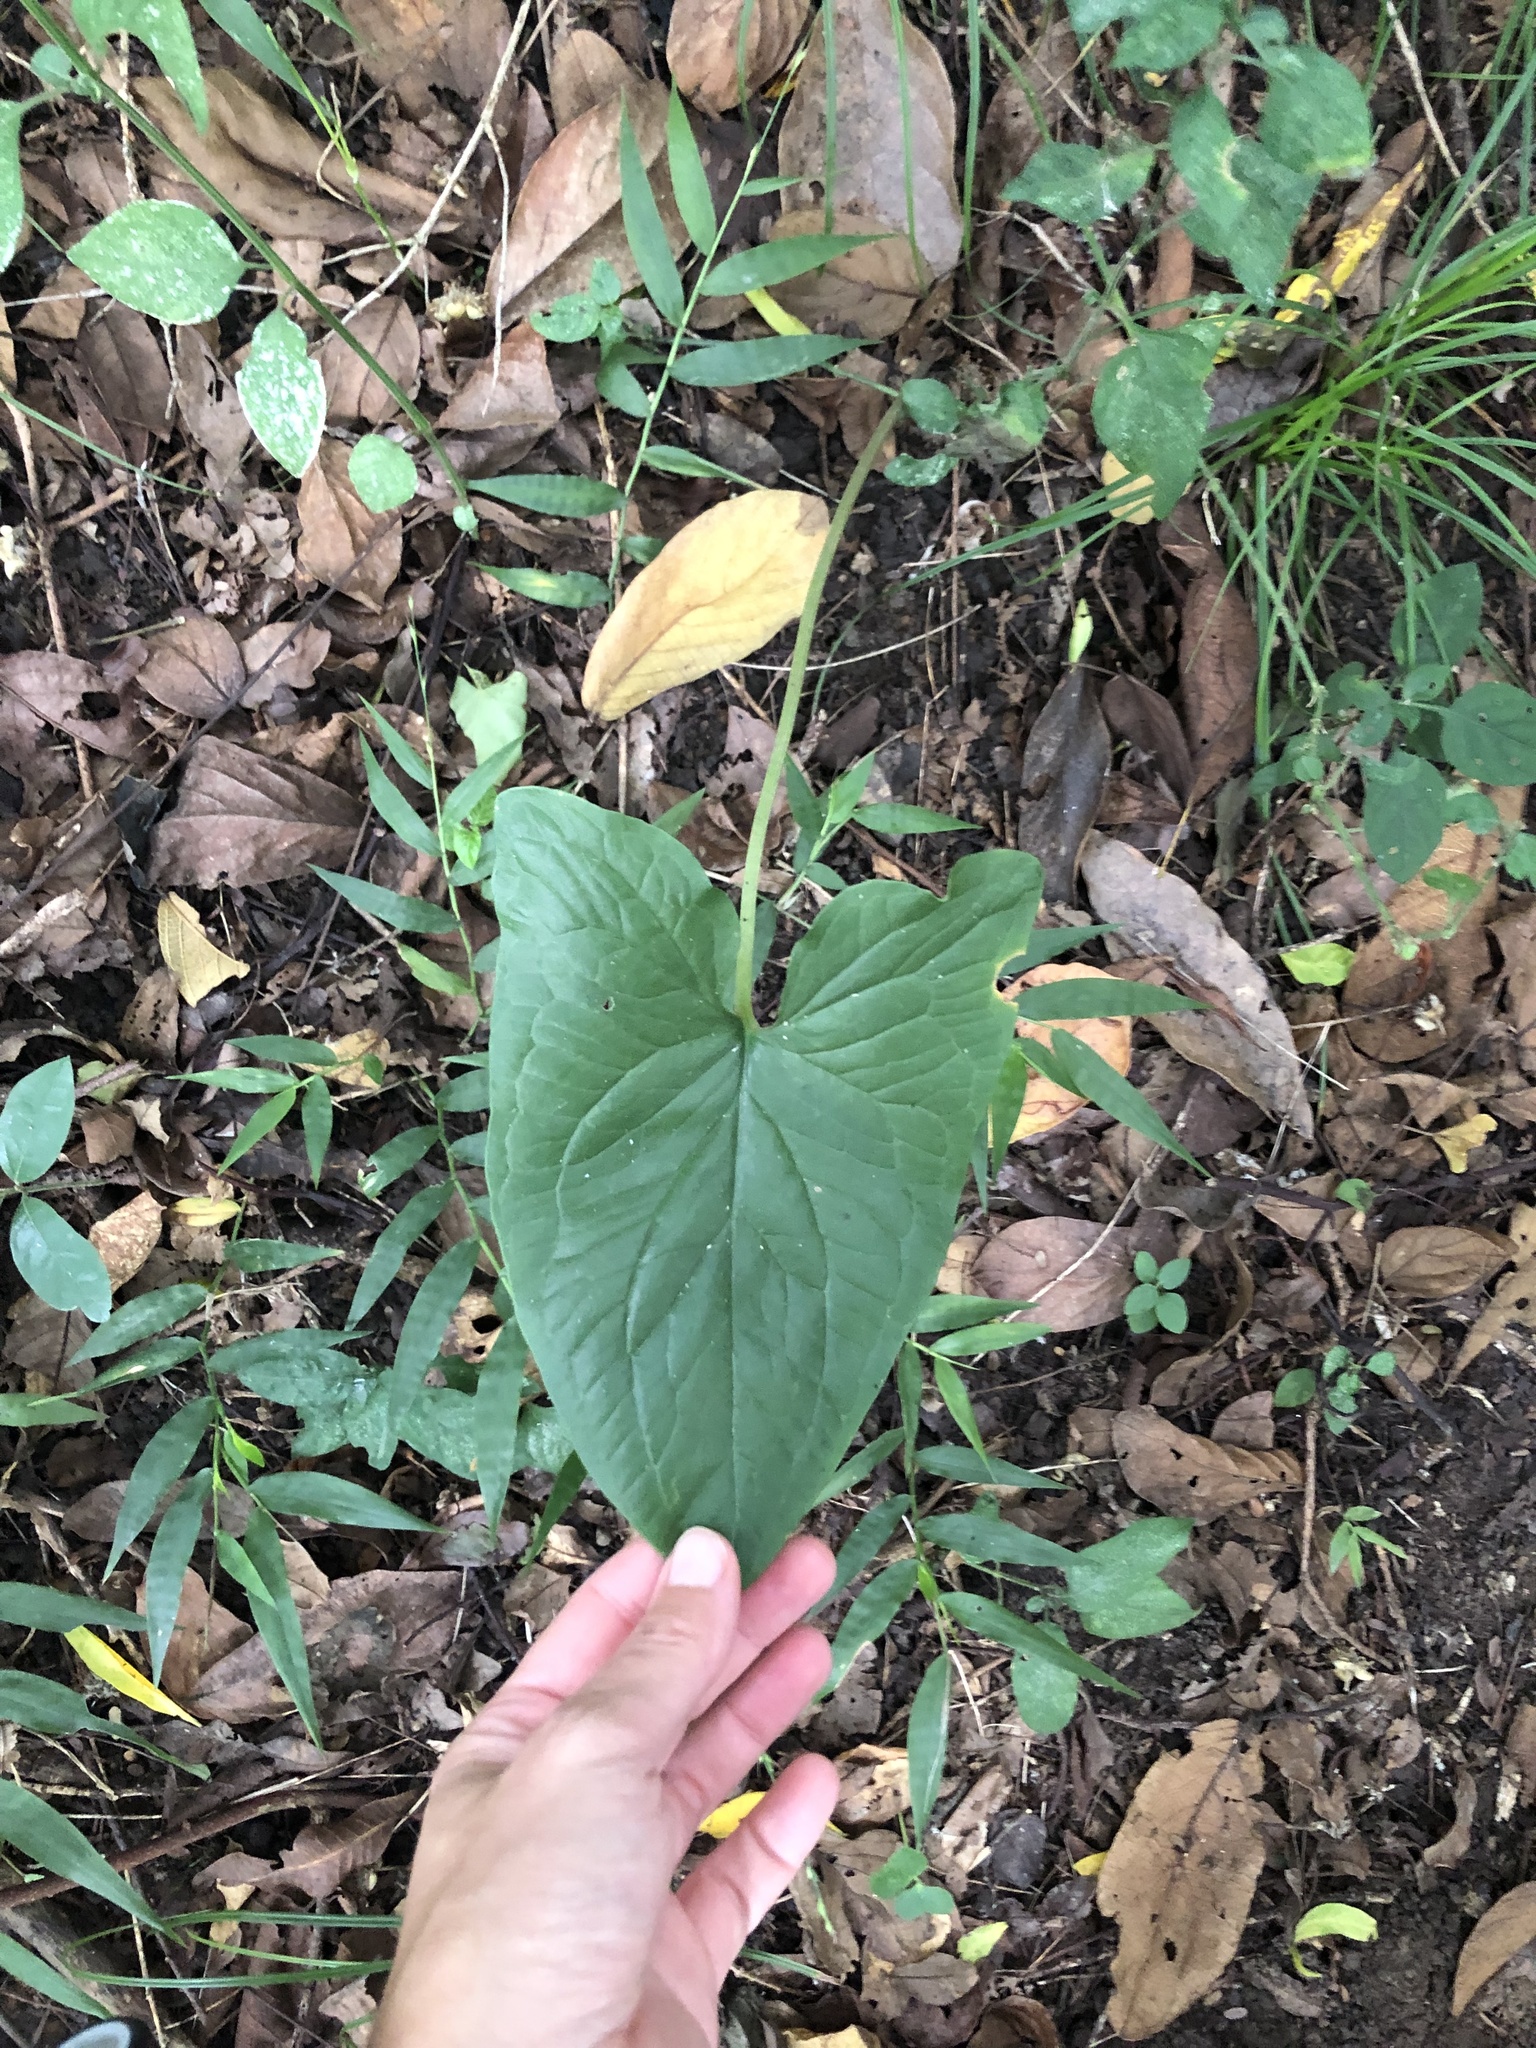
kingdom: Plantae
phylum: Tracheophyta
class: Liliopsida
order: Alismatales
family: Araceae
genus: Stylochaeton
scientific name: Stylochaeton natalensis
